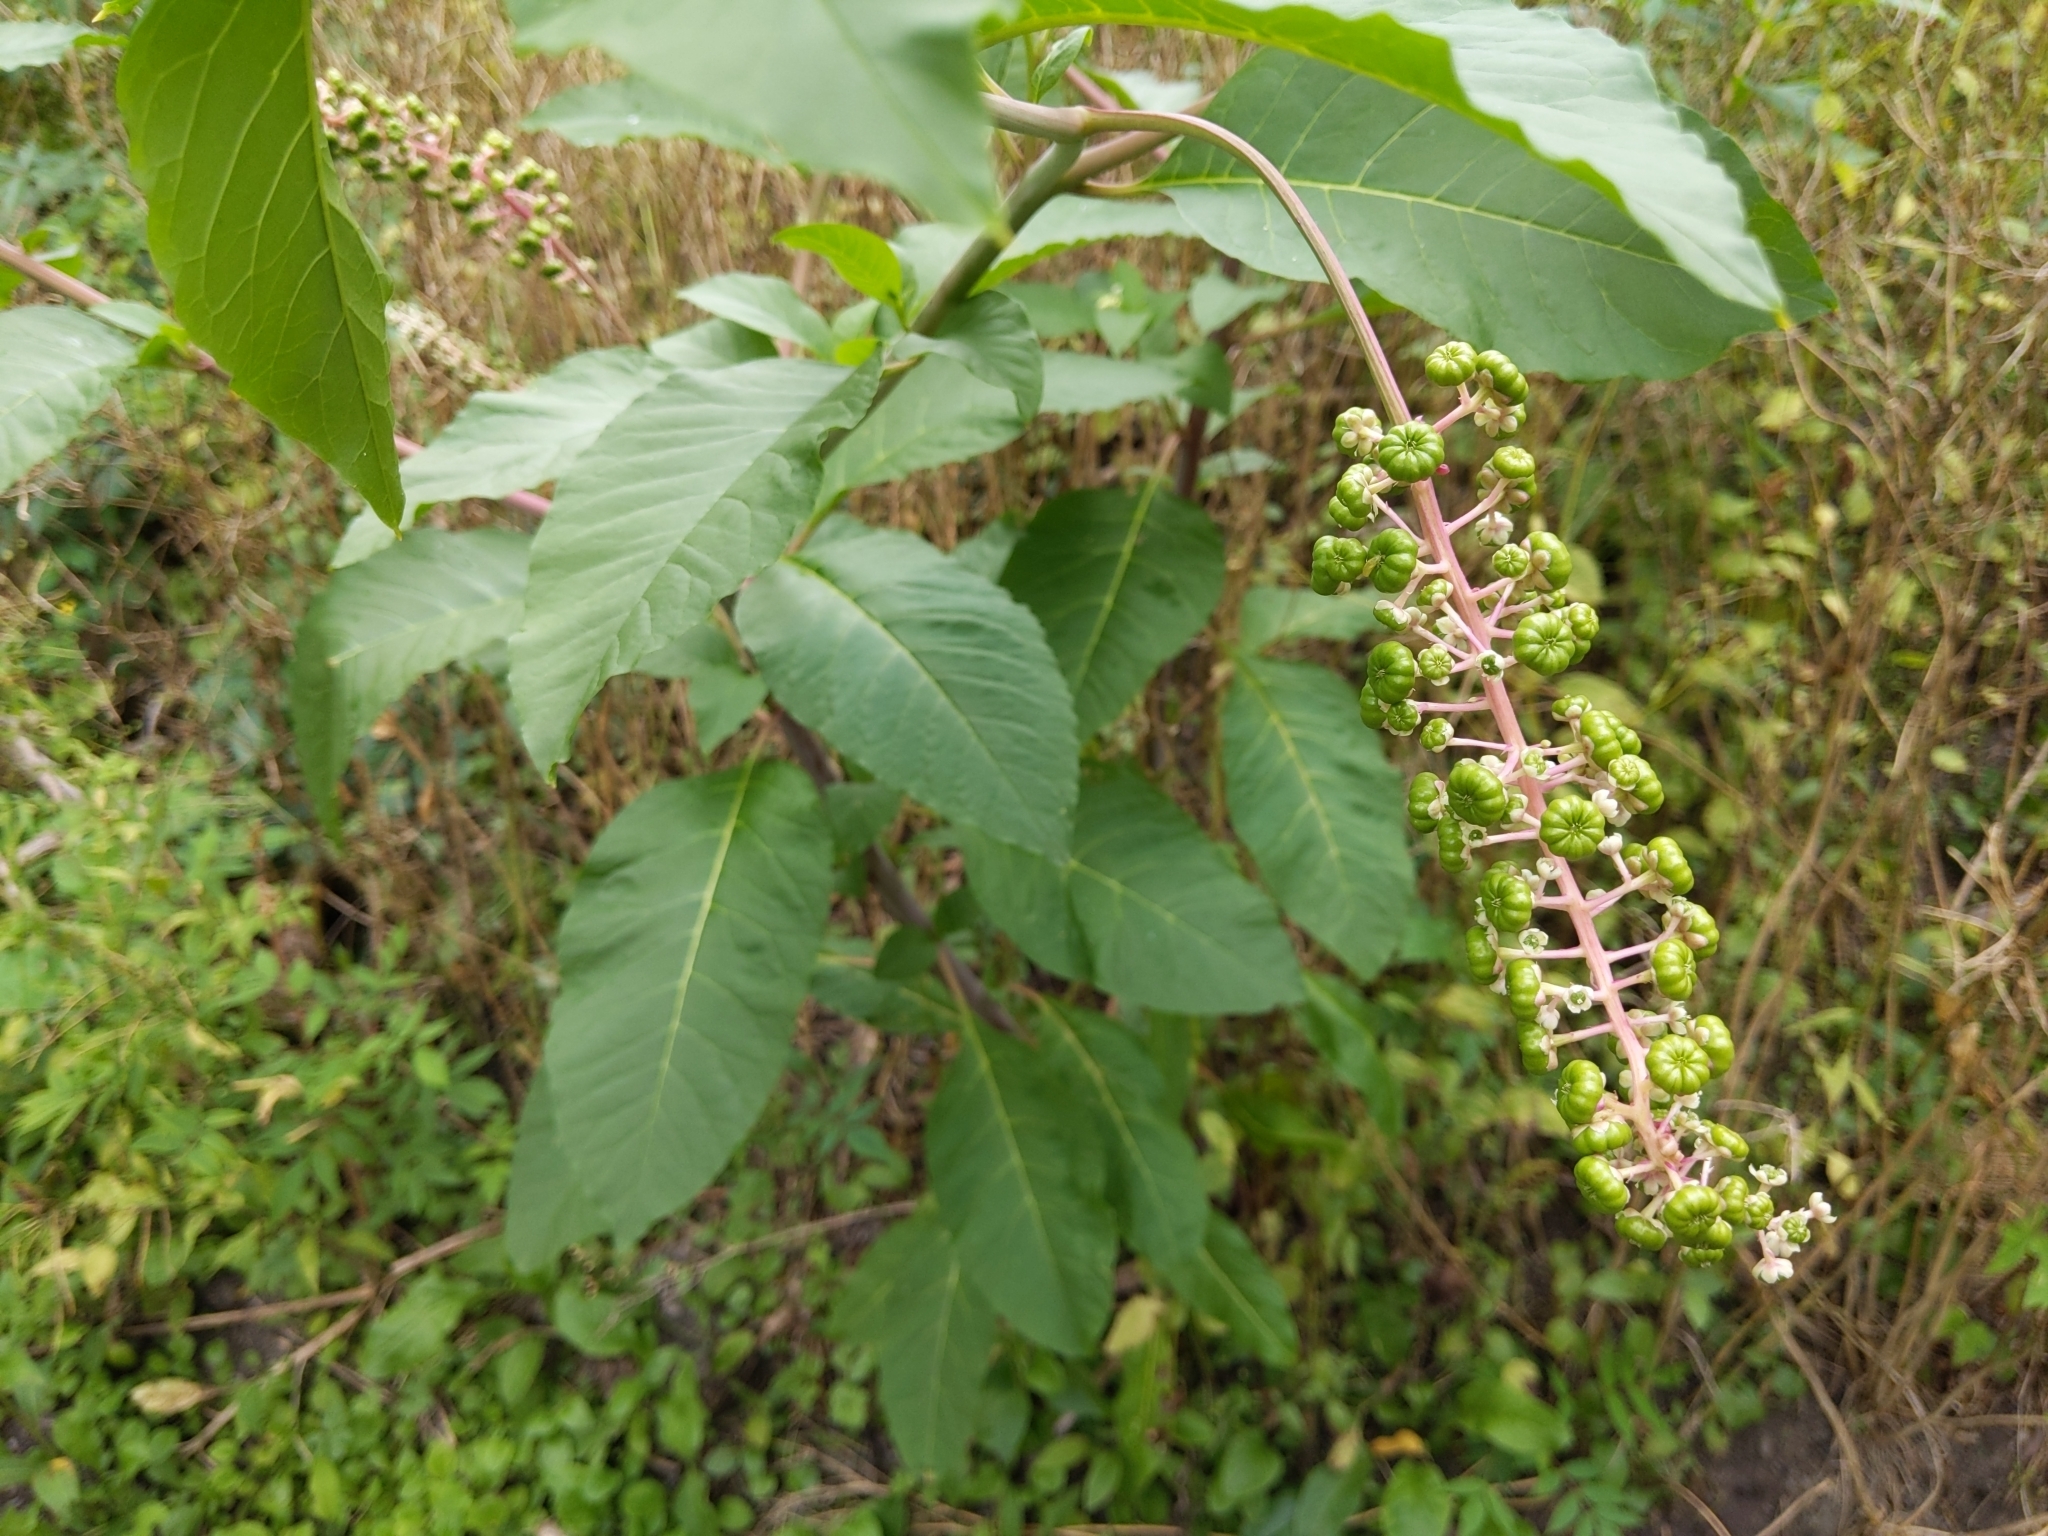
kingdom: Plantae
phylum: Tracheophyta
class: Magnoliopsida
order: Caryophyllales
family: Phytolaccaceae
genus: Phytolacca
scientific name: Phytolacca americana
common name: American pokeweed
